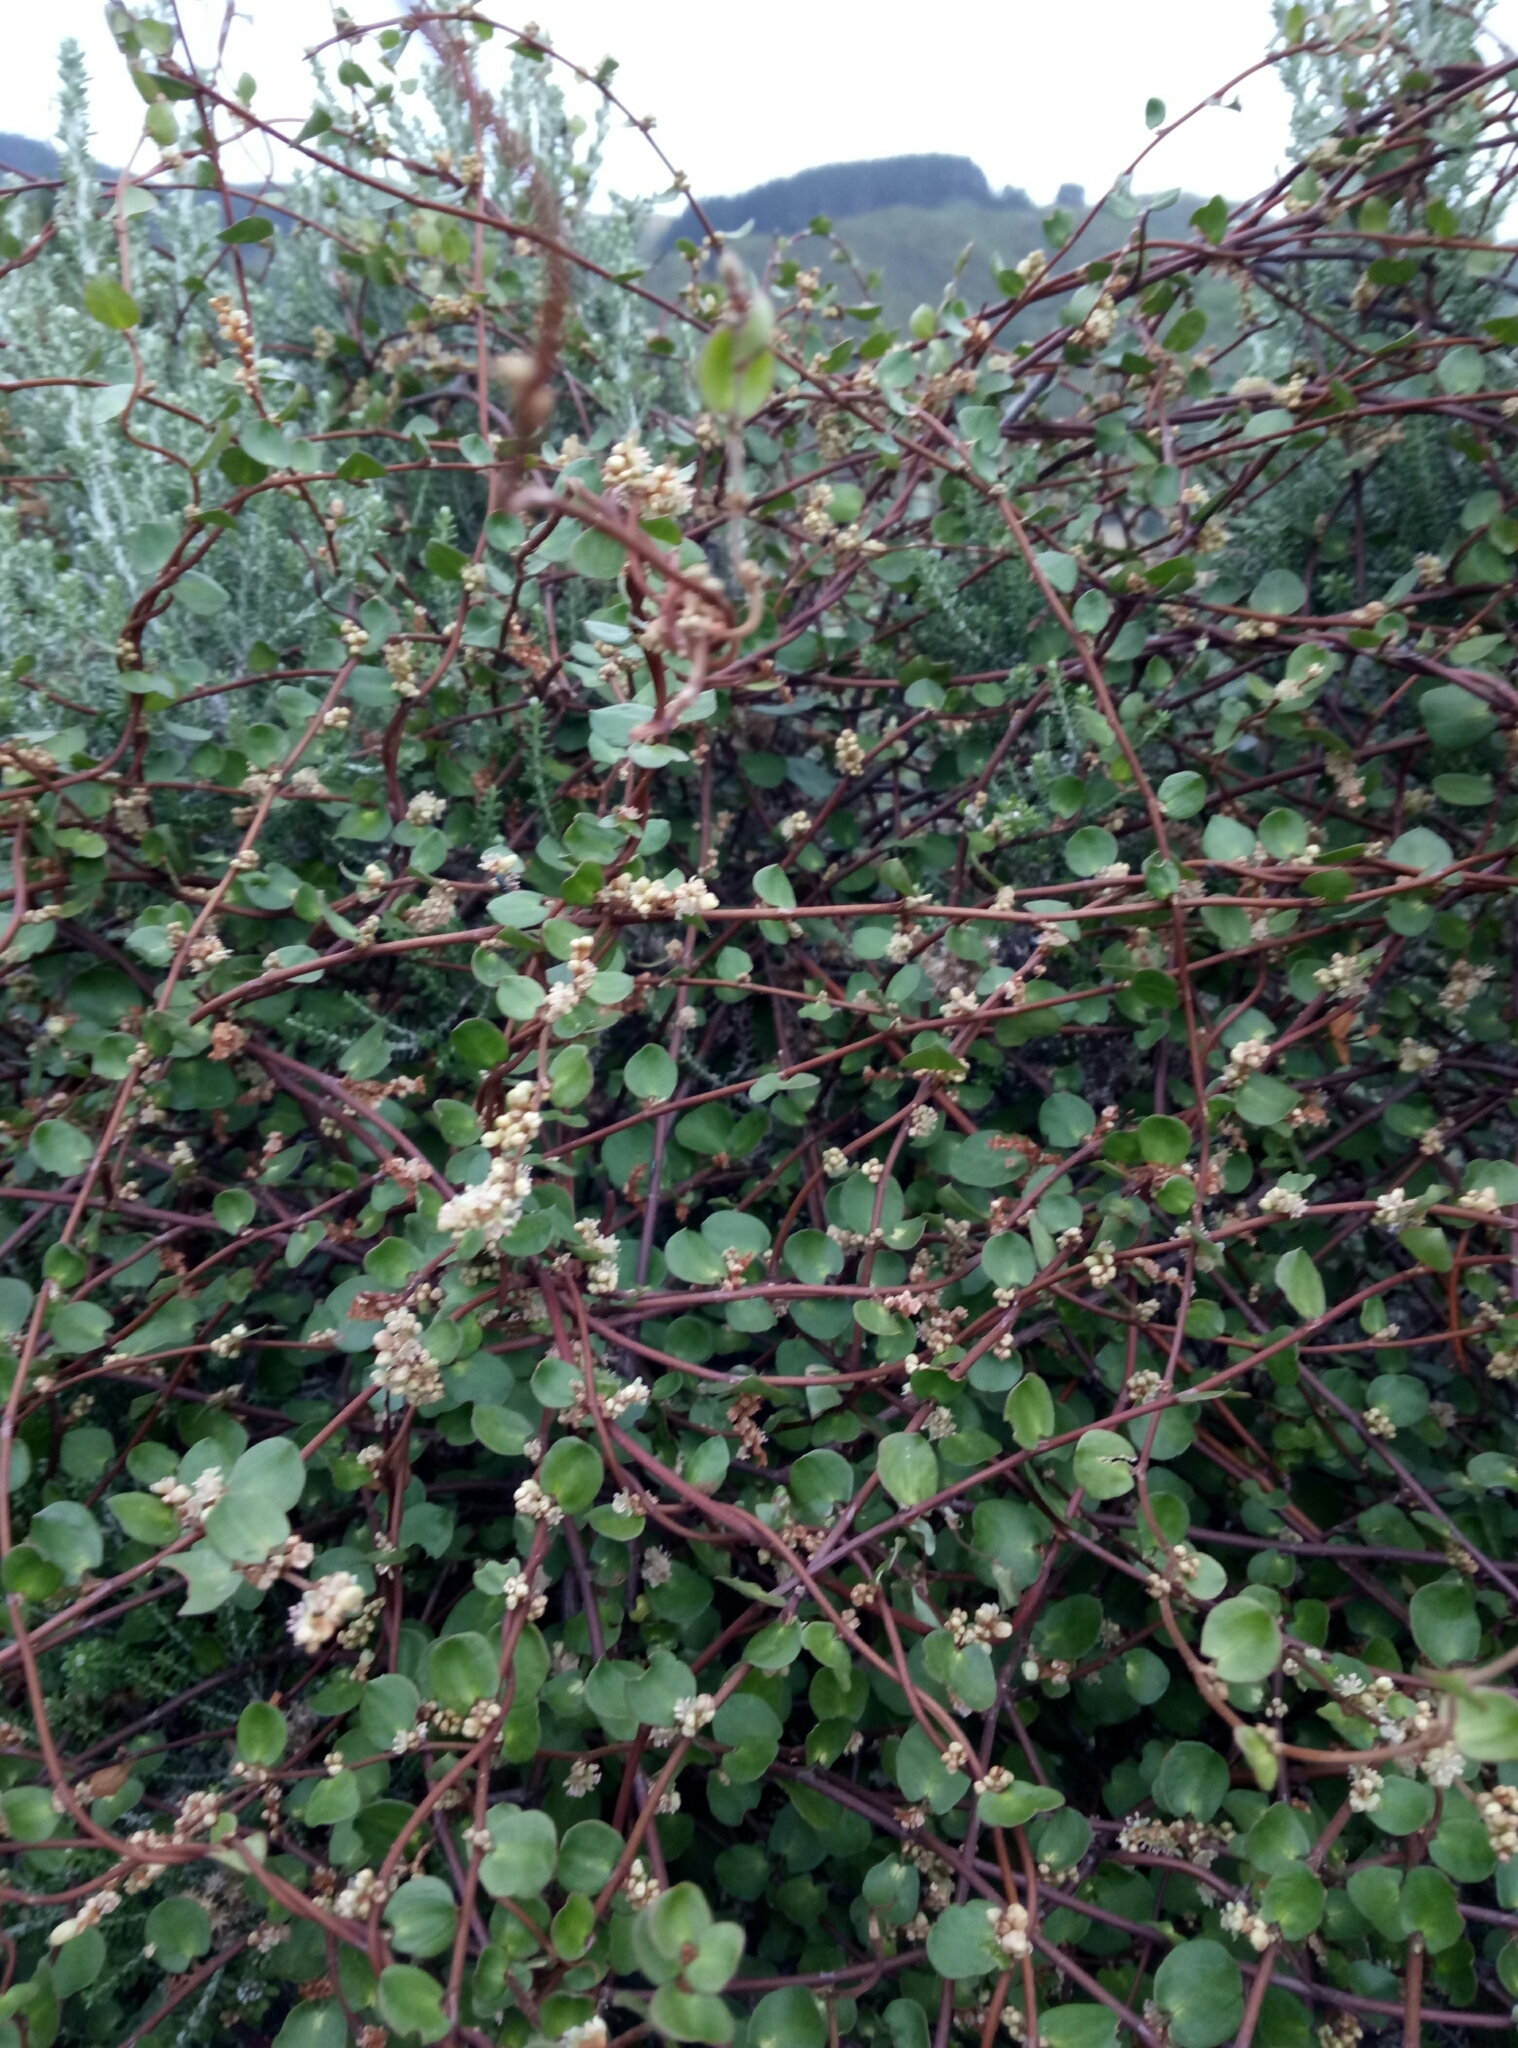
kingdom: Plantae
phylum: Tracheophyta
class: Magnoliopsida
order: Caryophyllales
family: Polygonaceae
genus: Muehlenbeckia
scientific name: Muehlenbeckia complexa
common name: Wireplant
